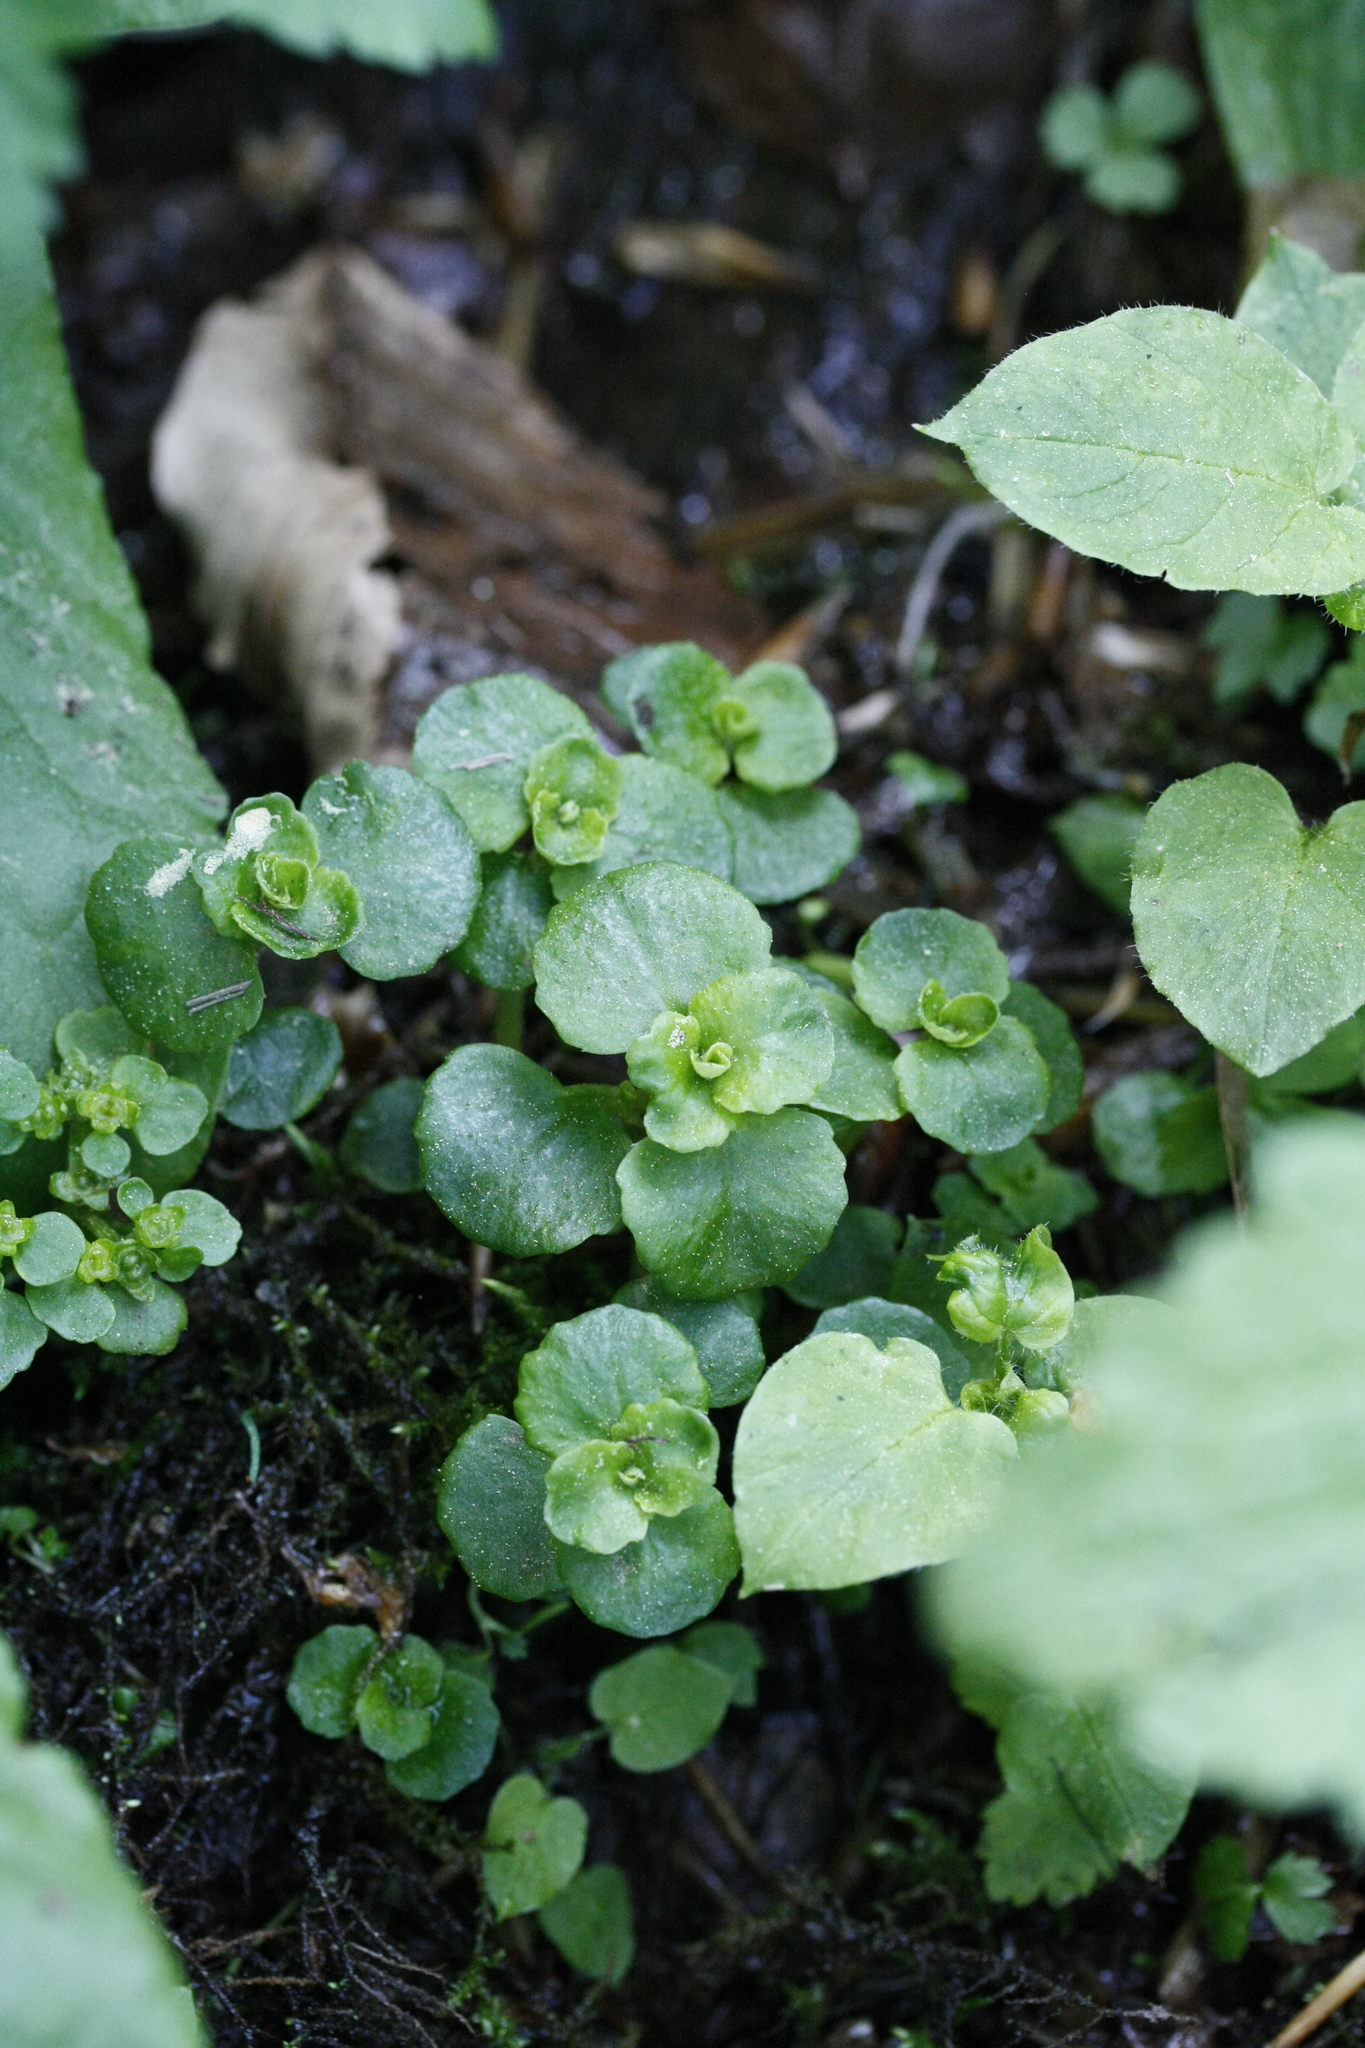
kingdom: Plantae
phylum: Tracheophyta
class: Magnoliopsida
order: Saxifragales
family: Saxifragaceae
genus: Chrysosplenium
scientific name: Chrysosplenium oppositifolium
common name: Opposite-leaved golden-saxifrage
